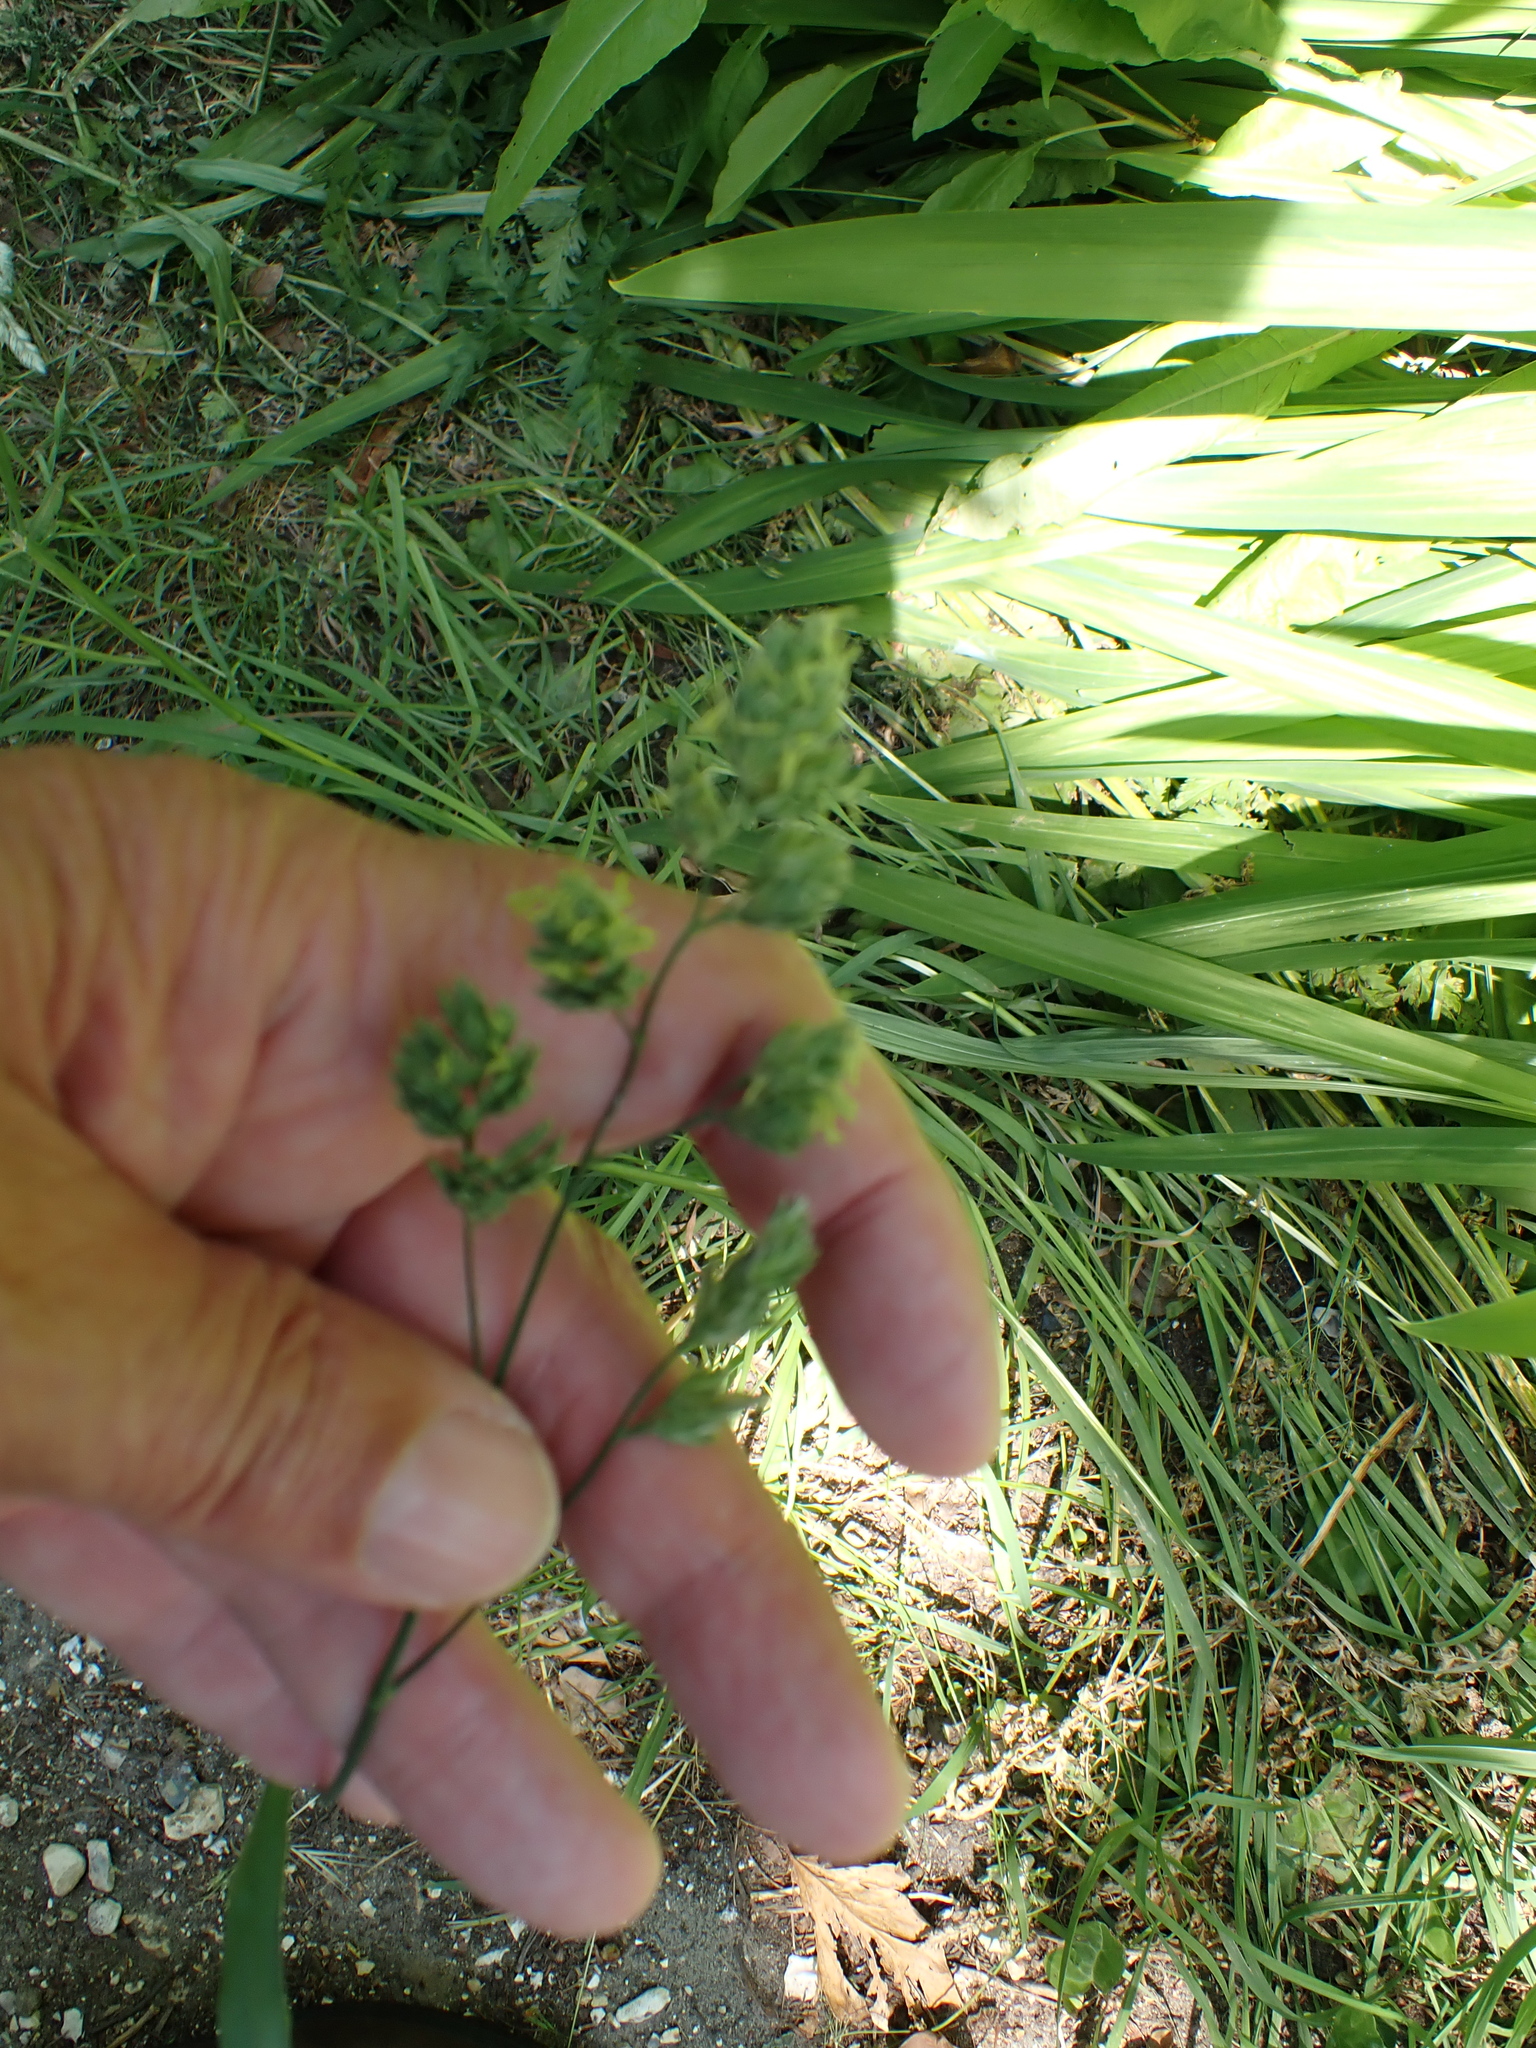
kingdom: Plantae
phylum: Tracheophyta
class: Liliopsida
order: Poales
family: Poaceae
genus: Dactylis
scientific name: Dactylis glomerata
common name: Orchardgrass
